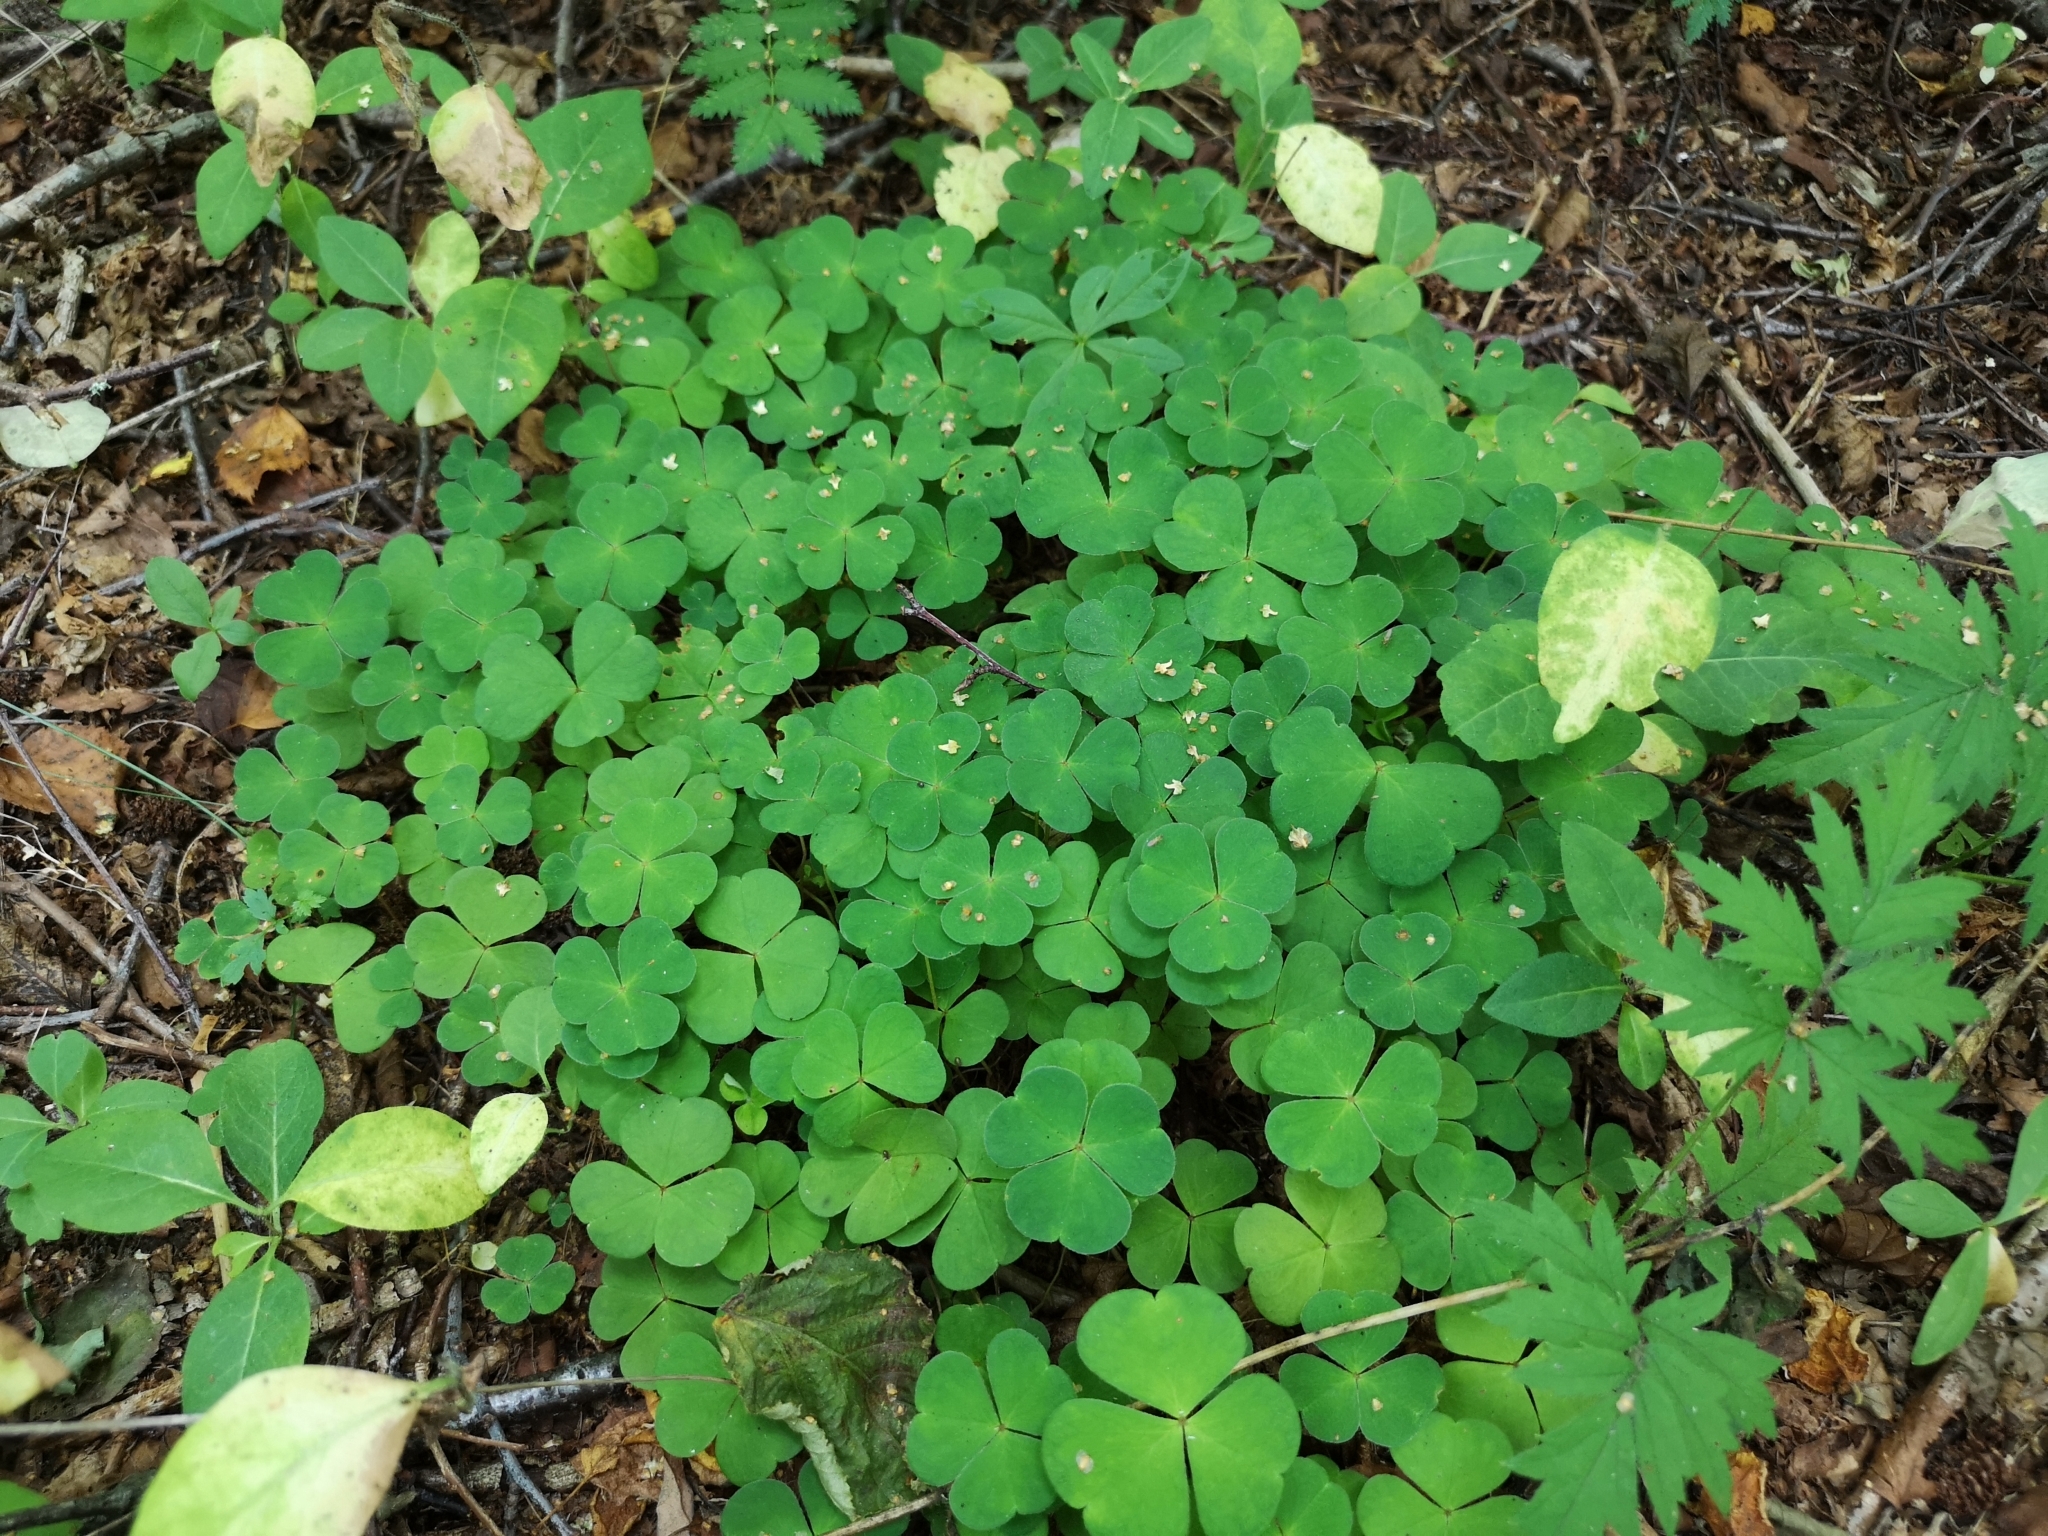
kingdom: Plantae
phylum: Tracheophyta
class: Magnoliopsida
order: Oxalidales
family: Oxalidaceae
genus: Oxalis
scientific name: Oxalis acetosella
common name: Wood-sorrel
